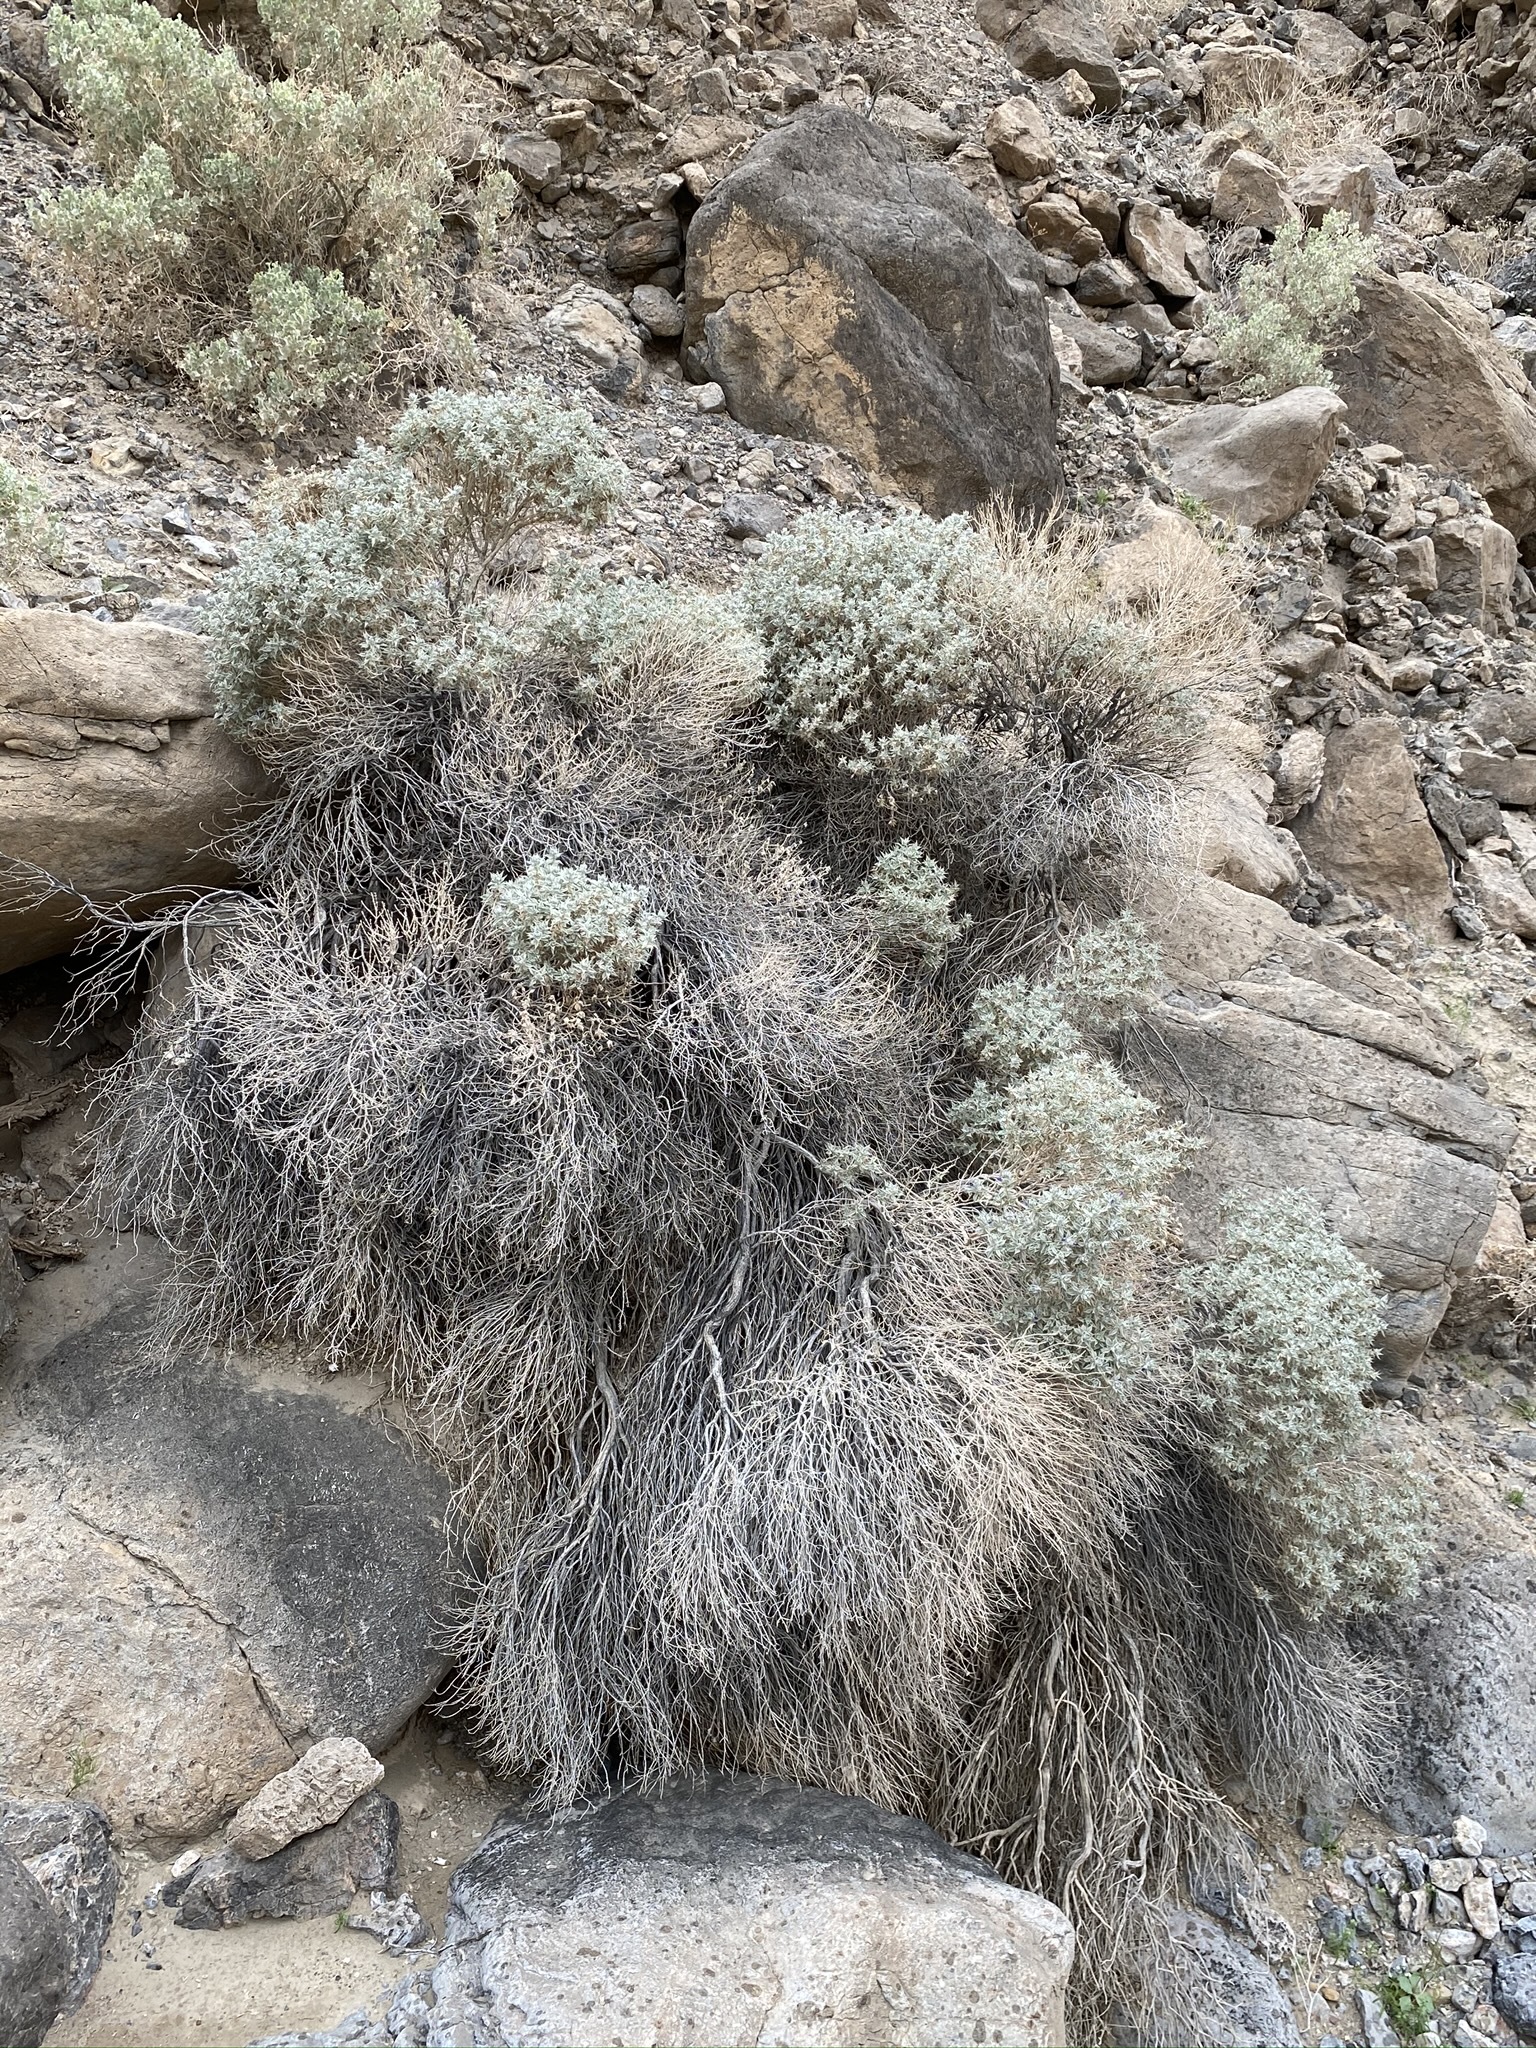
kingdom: Plantae
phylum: Tracheophyta
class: Magnoliopsida
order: Lamiales
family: Lamiaceae
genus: Salvia
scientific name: Salvia funerea
